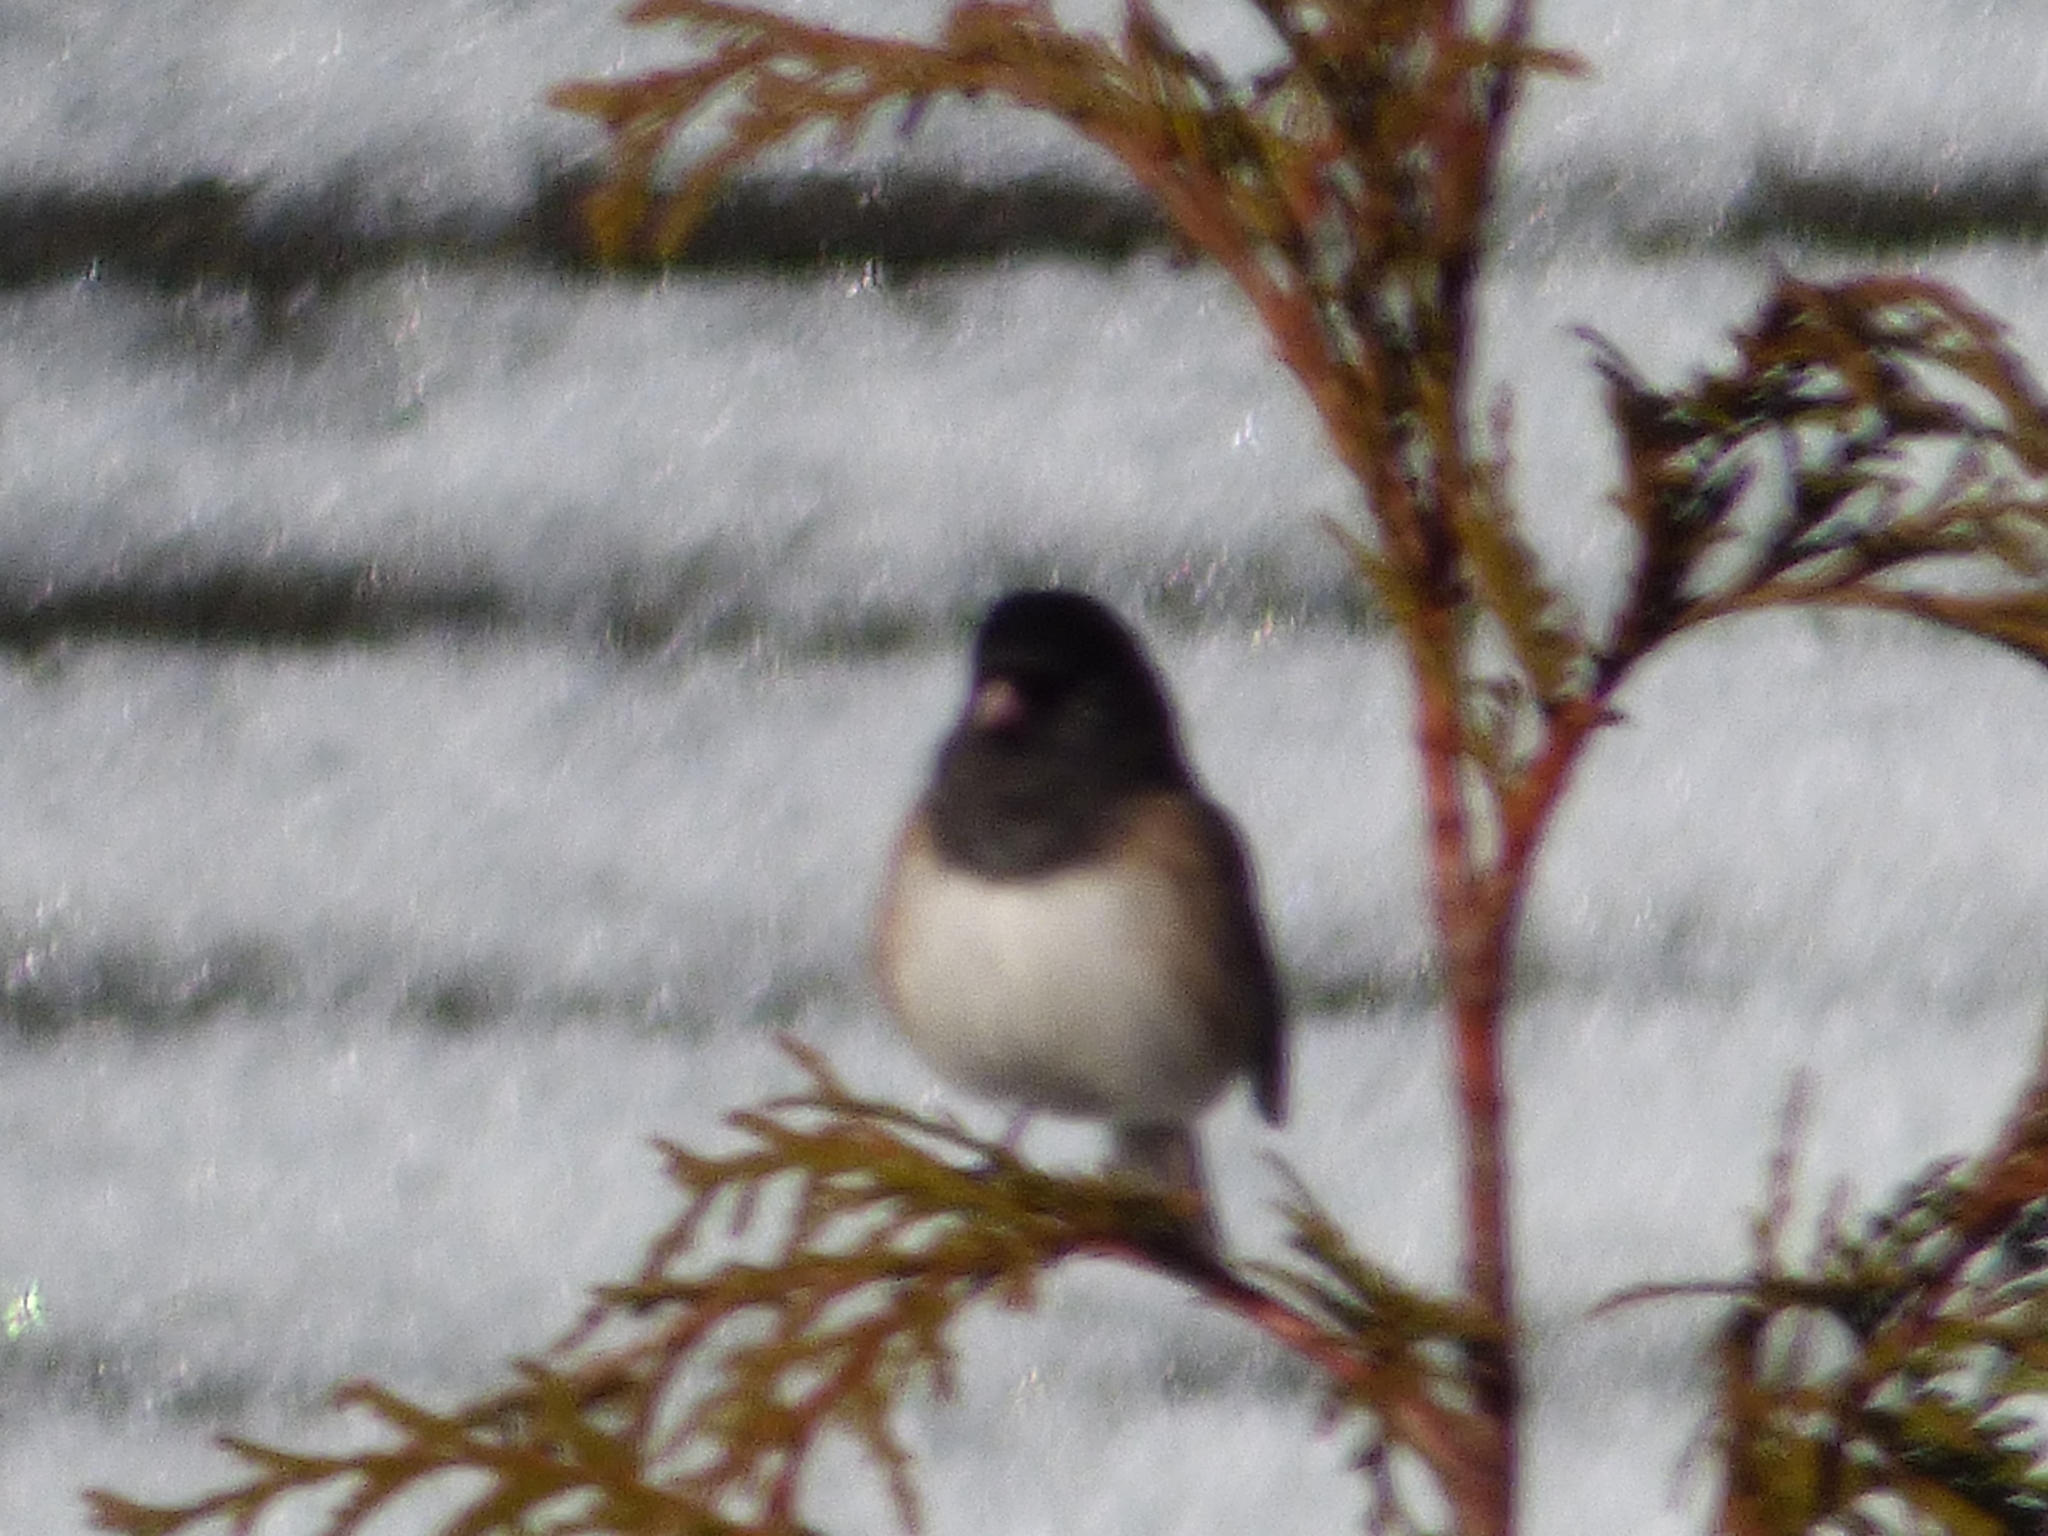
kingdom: Animalia
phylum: Chordata
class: Aves
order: Passeriformes
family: Passerellidae
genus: Junco
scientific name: Junco hyemalis
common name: Dark-eyed junco
